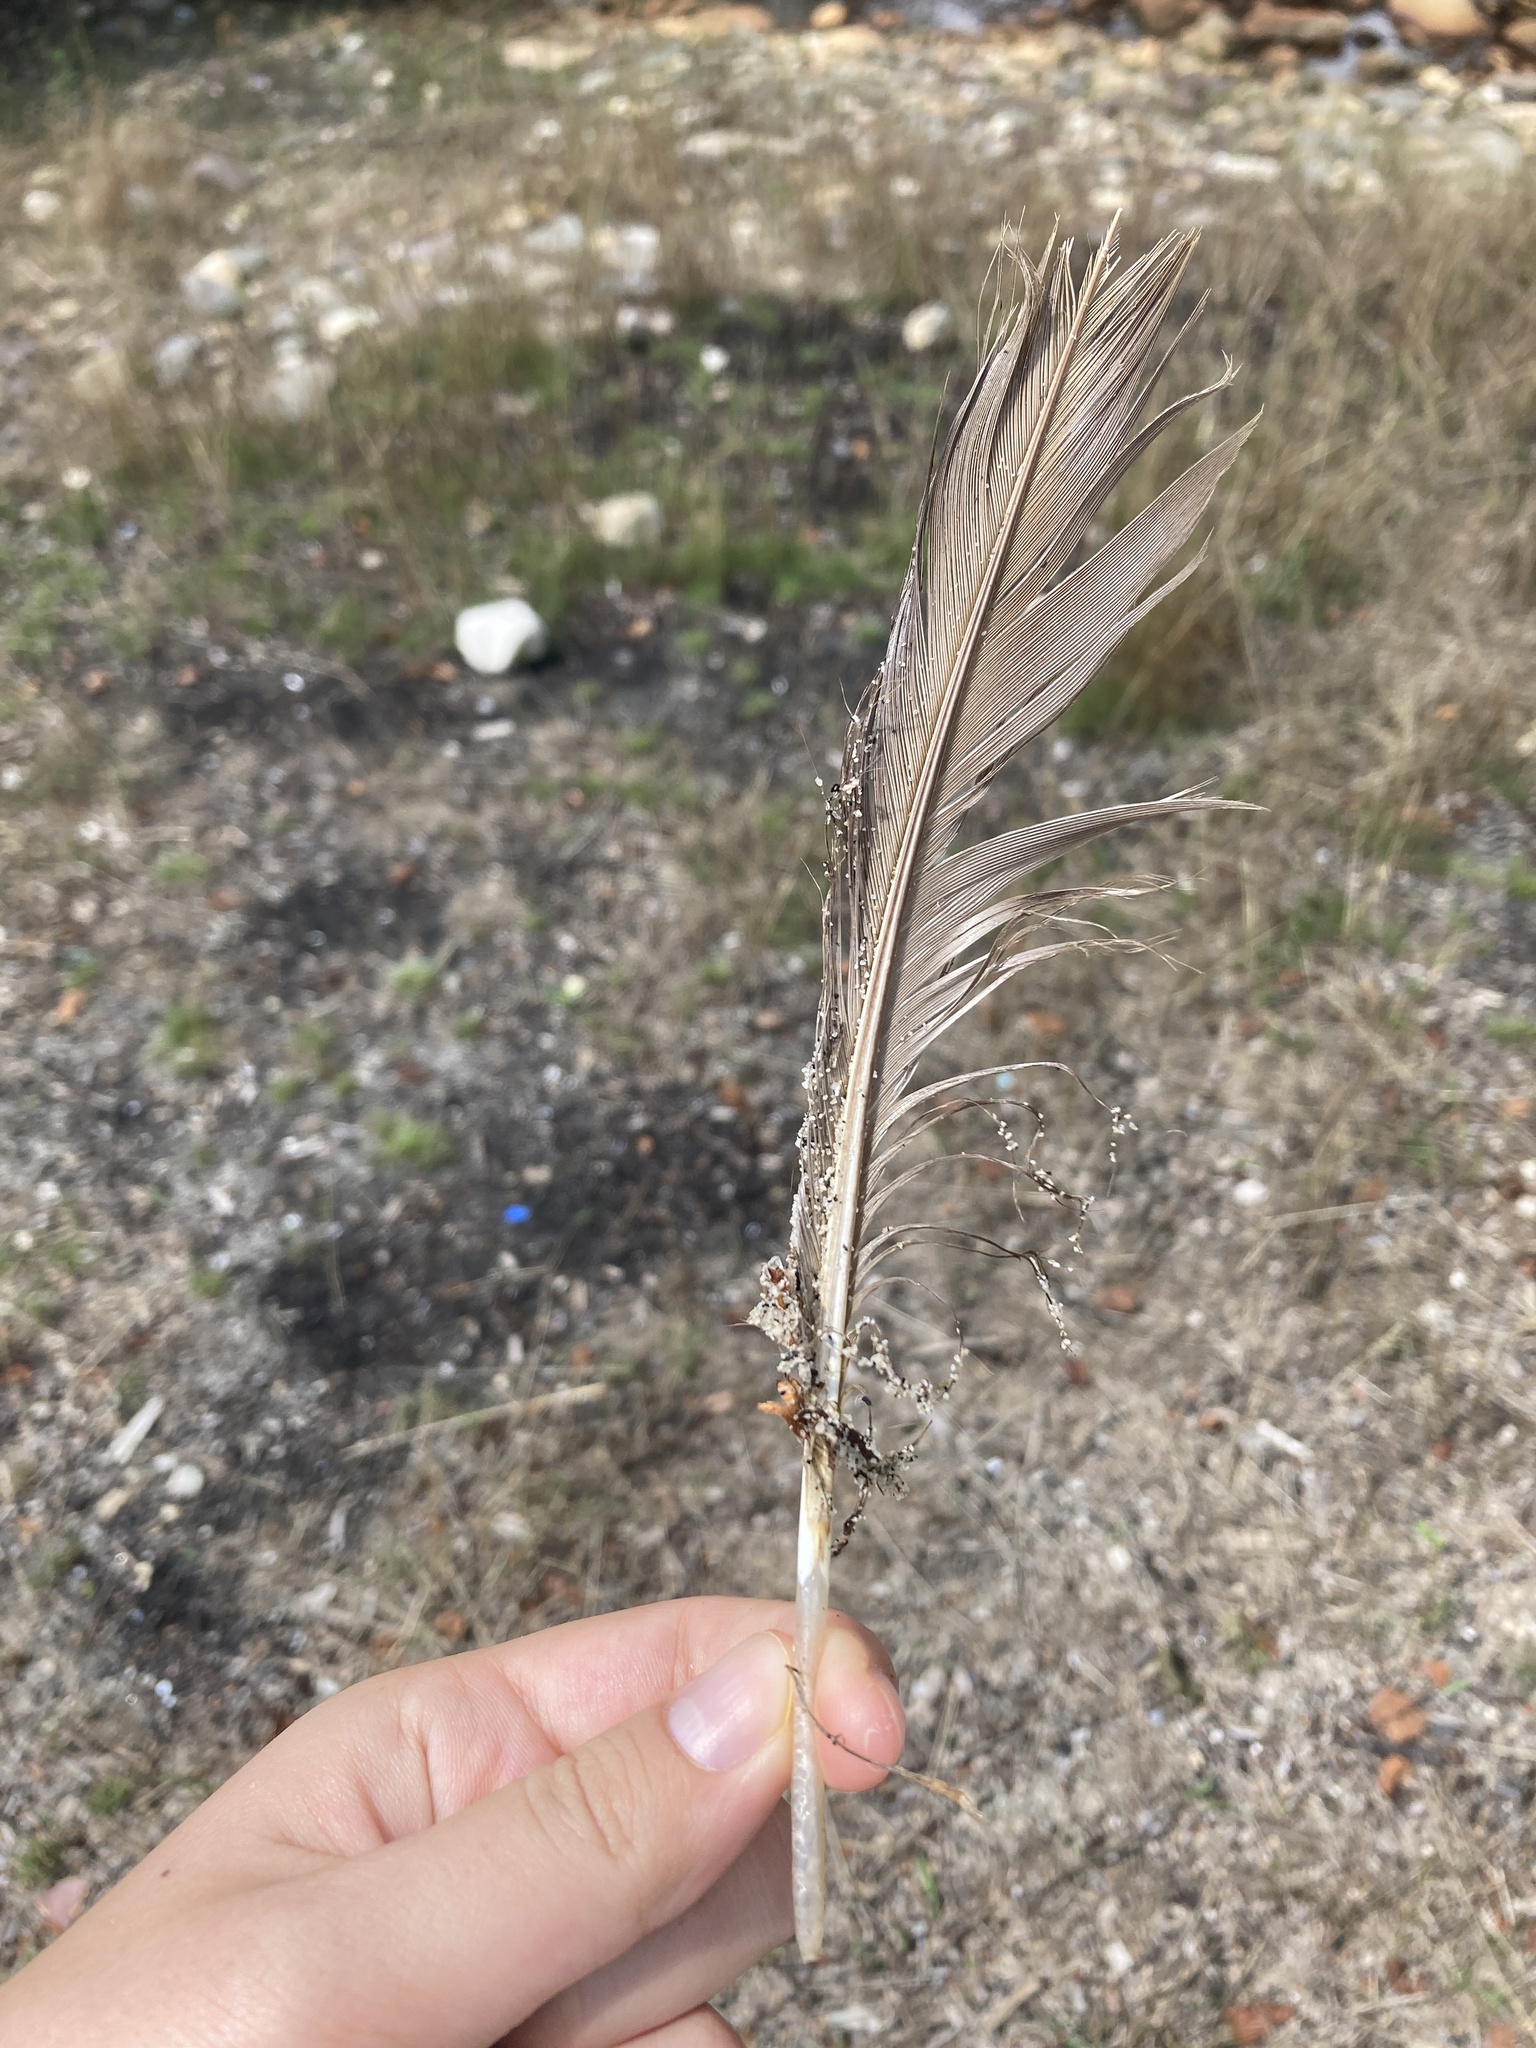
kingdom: Animalia
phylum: Chordata
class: Aves
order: Anseriformes
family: Anatidae
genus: Branta
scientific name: Branta canadensis
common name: Canada goose
